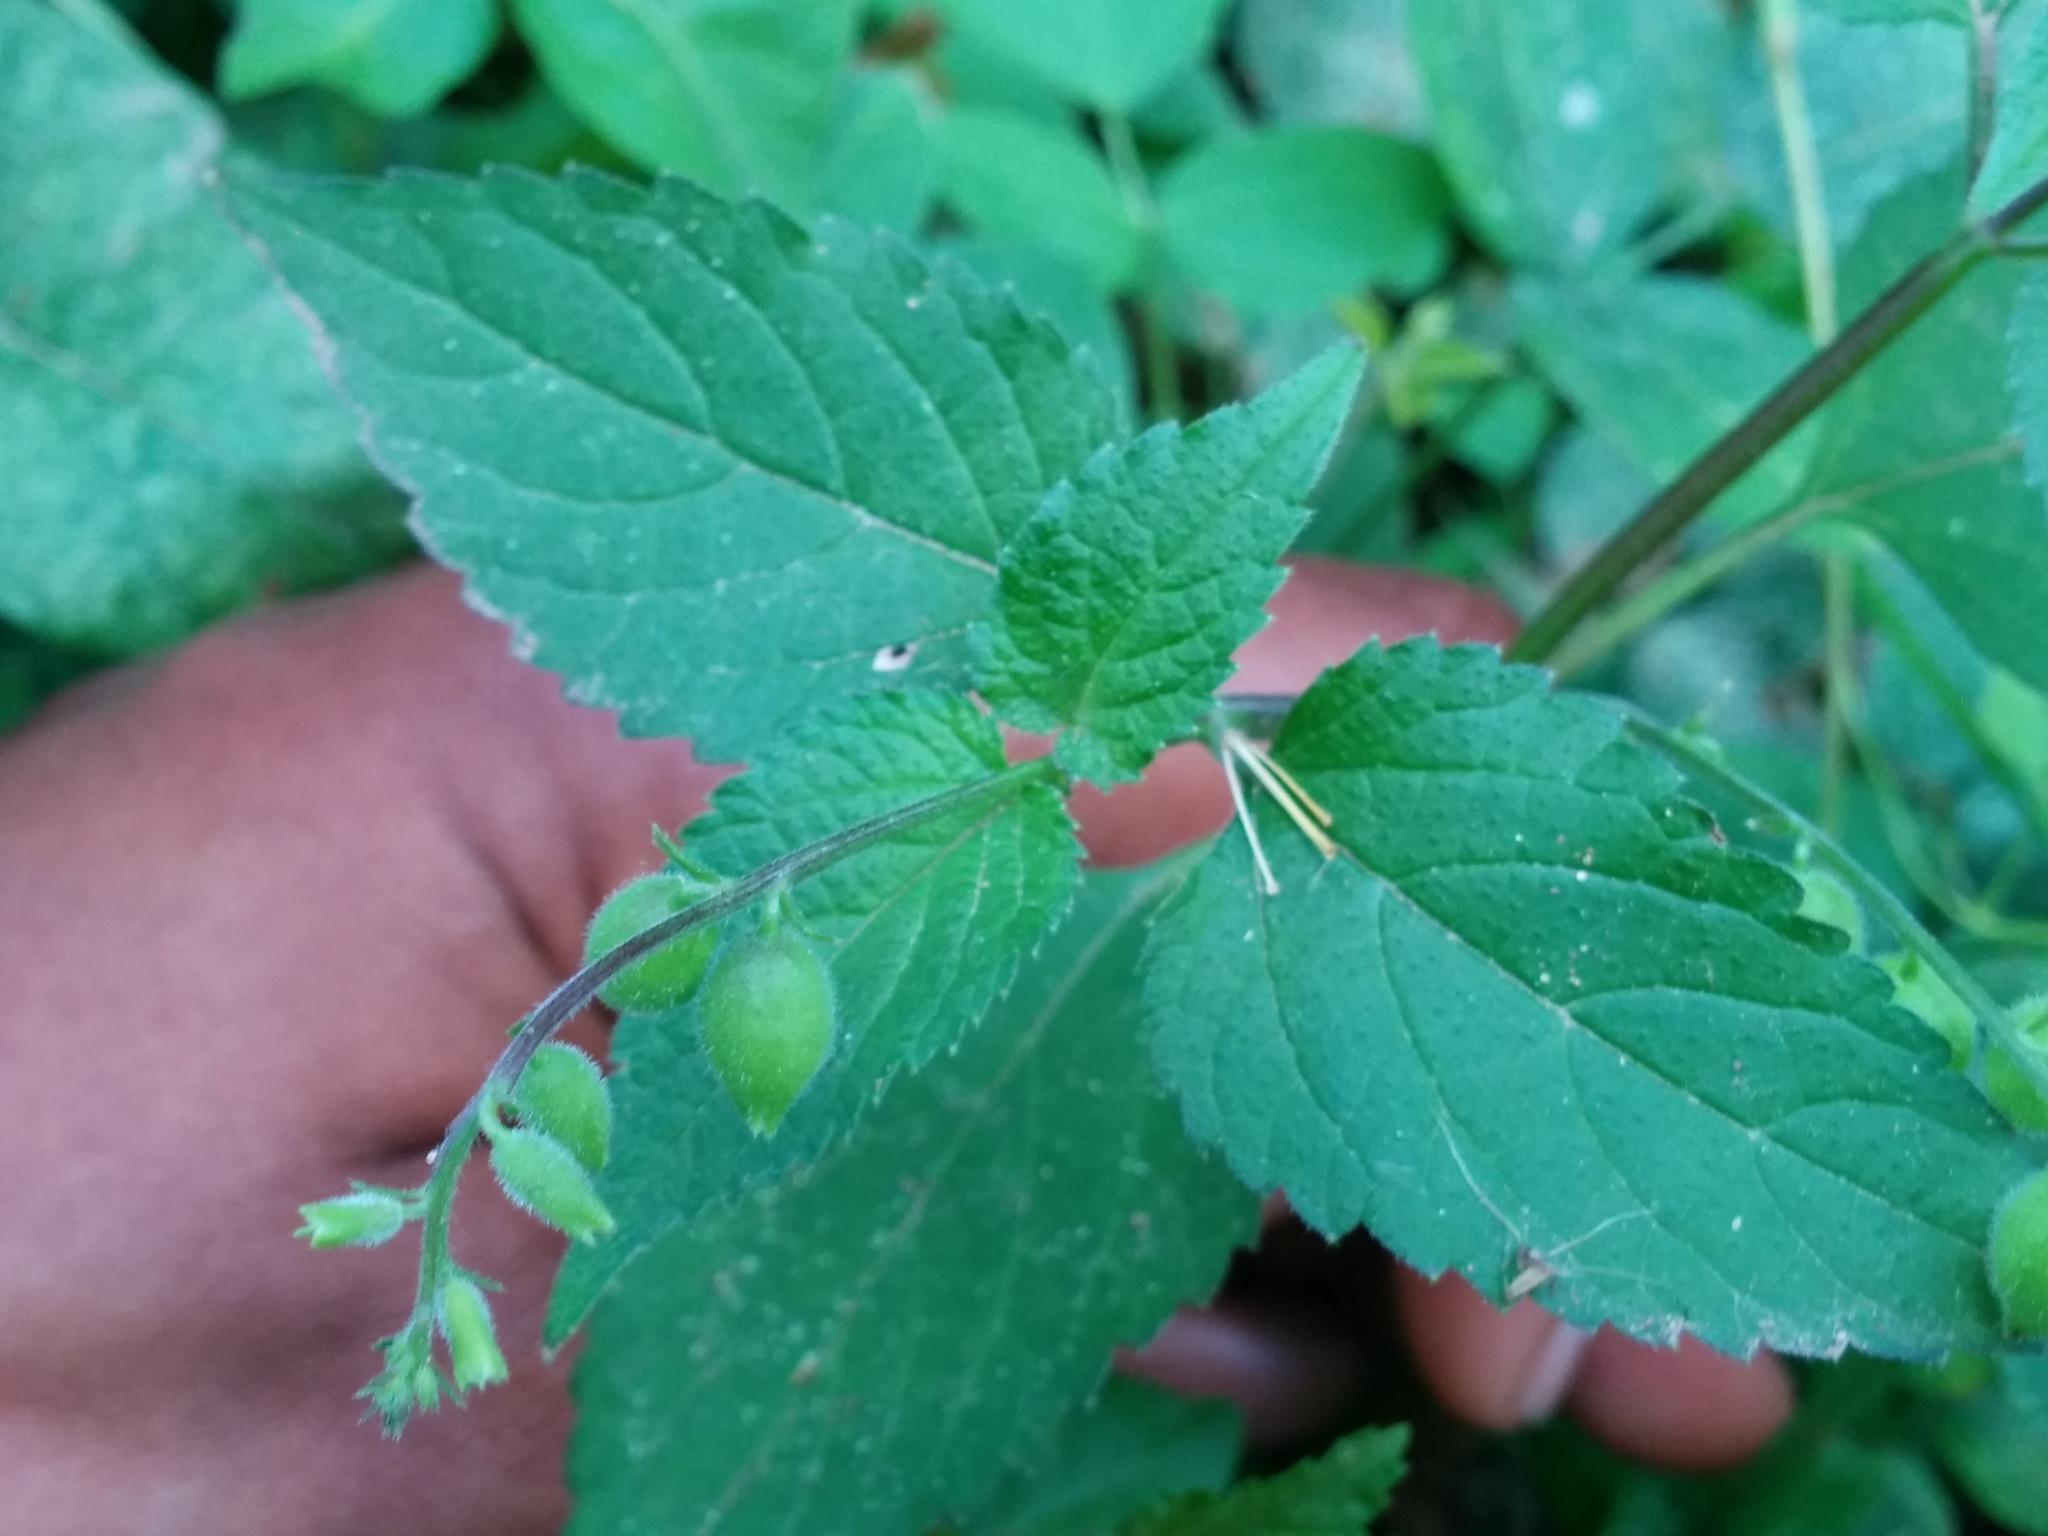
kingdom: Plantae
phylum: Tracheophyta
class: Magnoliopsida
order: Lamiales
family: Verbenaceae
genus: Priva
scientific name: Priva lappulacea
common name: Fasten-'pon-coat
